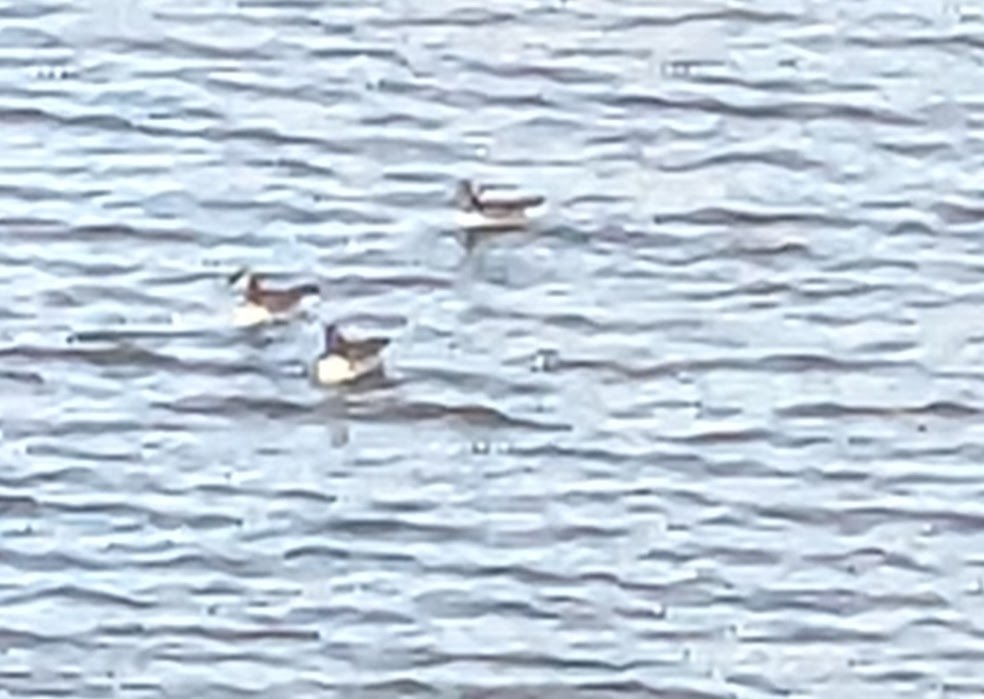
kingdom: Animalia
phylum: Chordata
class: Aves
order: Anseriformes
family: Anatidae
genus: Branta
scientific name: Branta canadensis
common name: Canada goose
